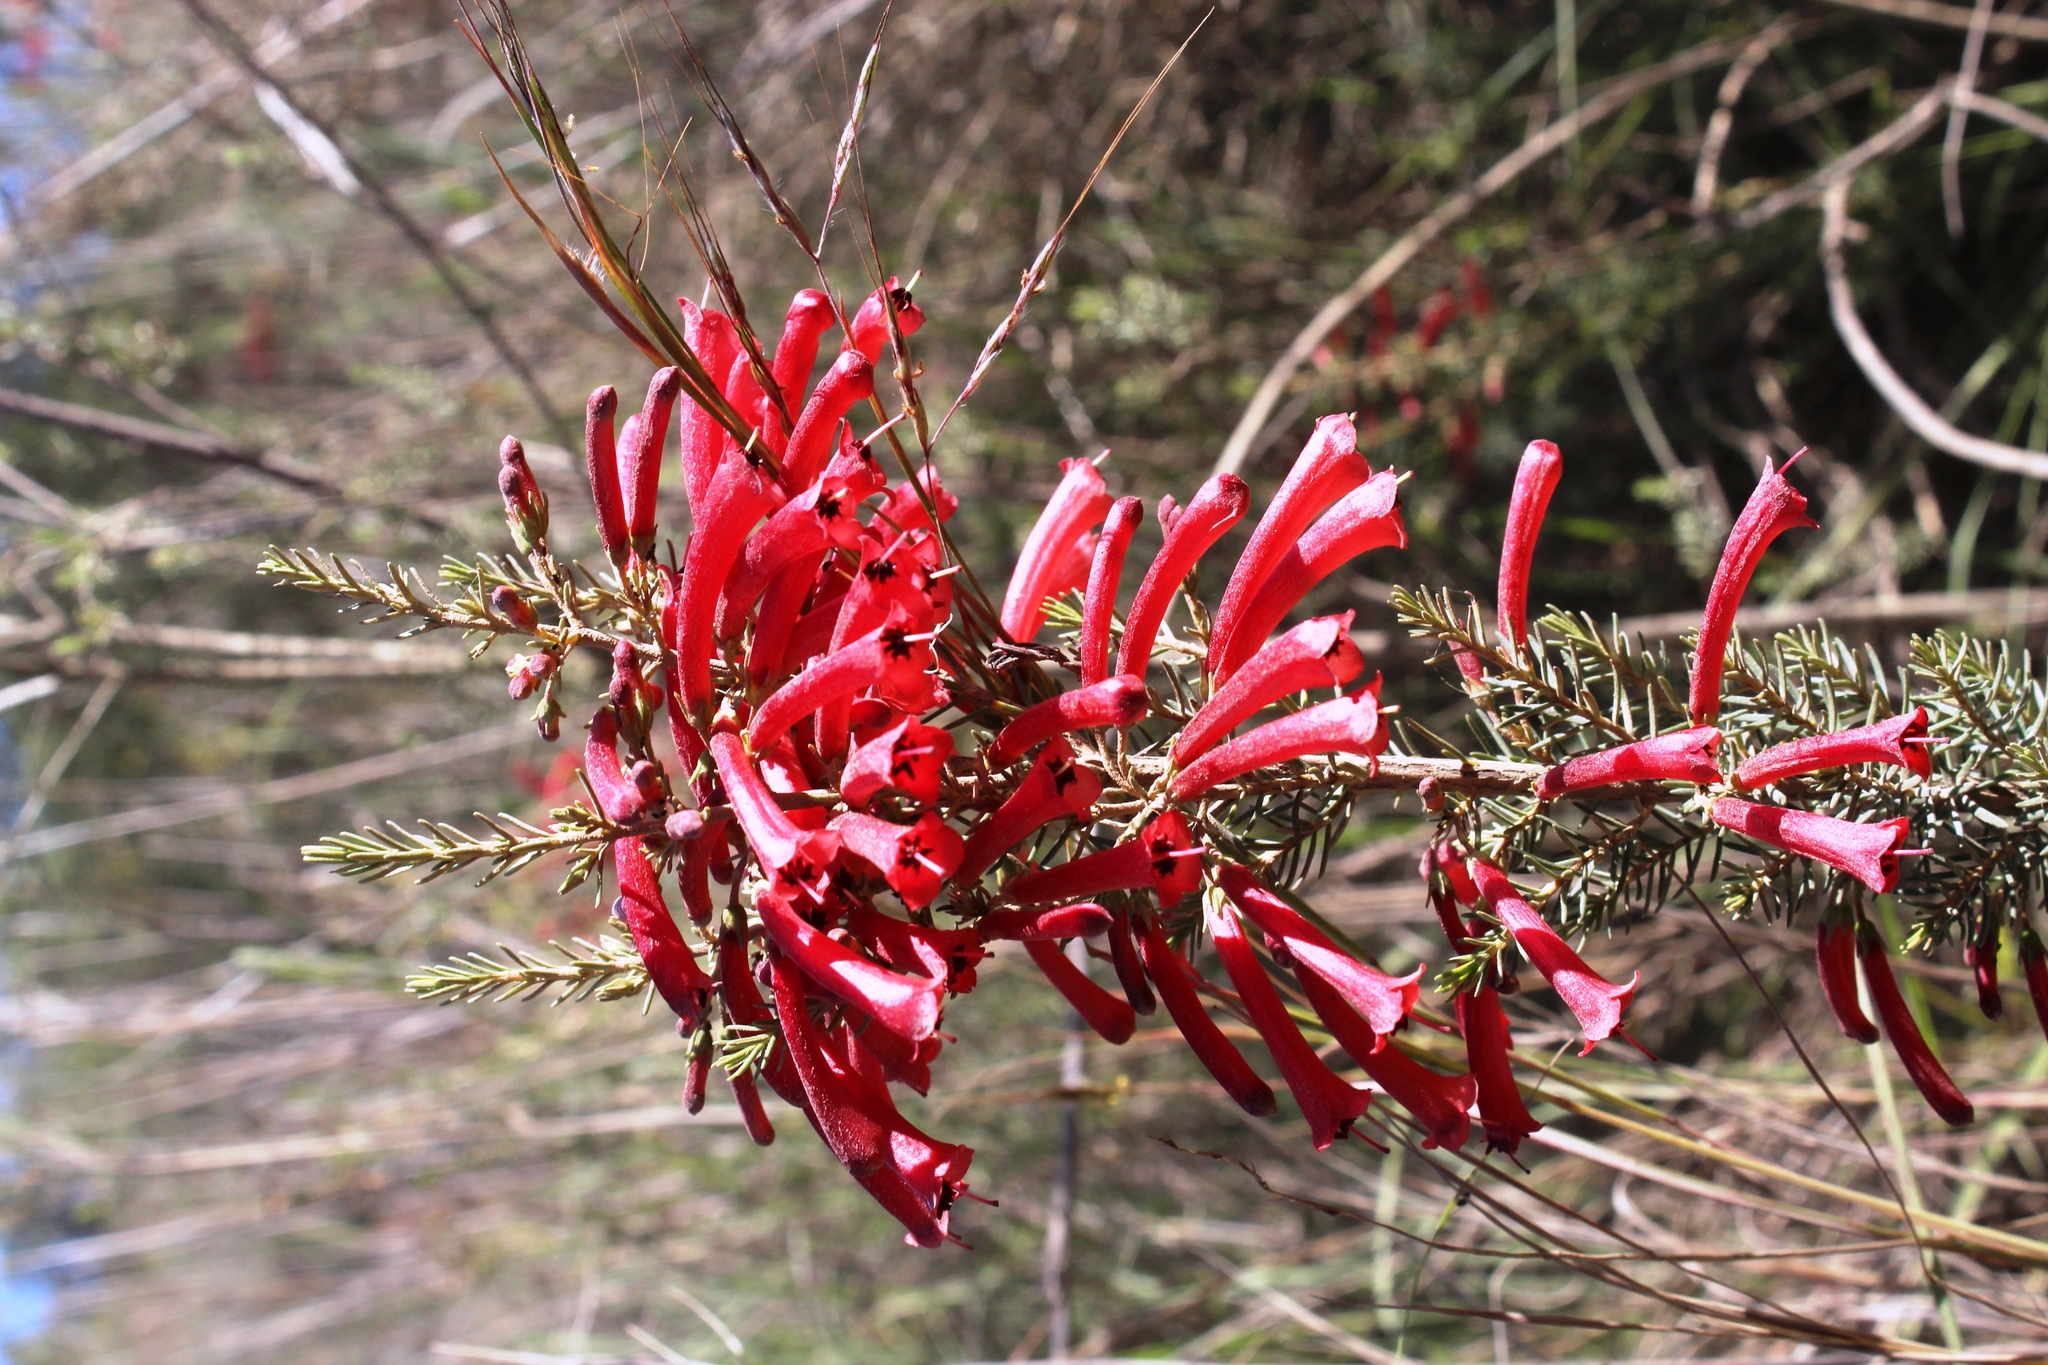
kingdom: Plantae
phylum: Tracheophyta
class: Magnoliopsida
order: Ericales
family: Ericaceae
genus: Erica
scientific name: Erica cruenta
